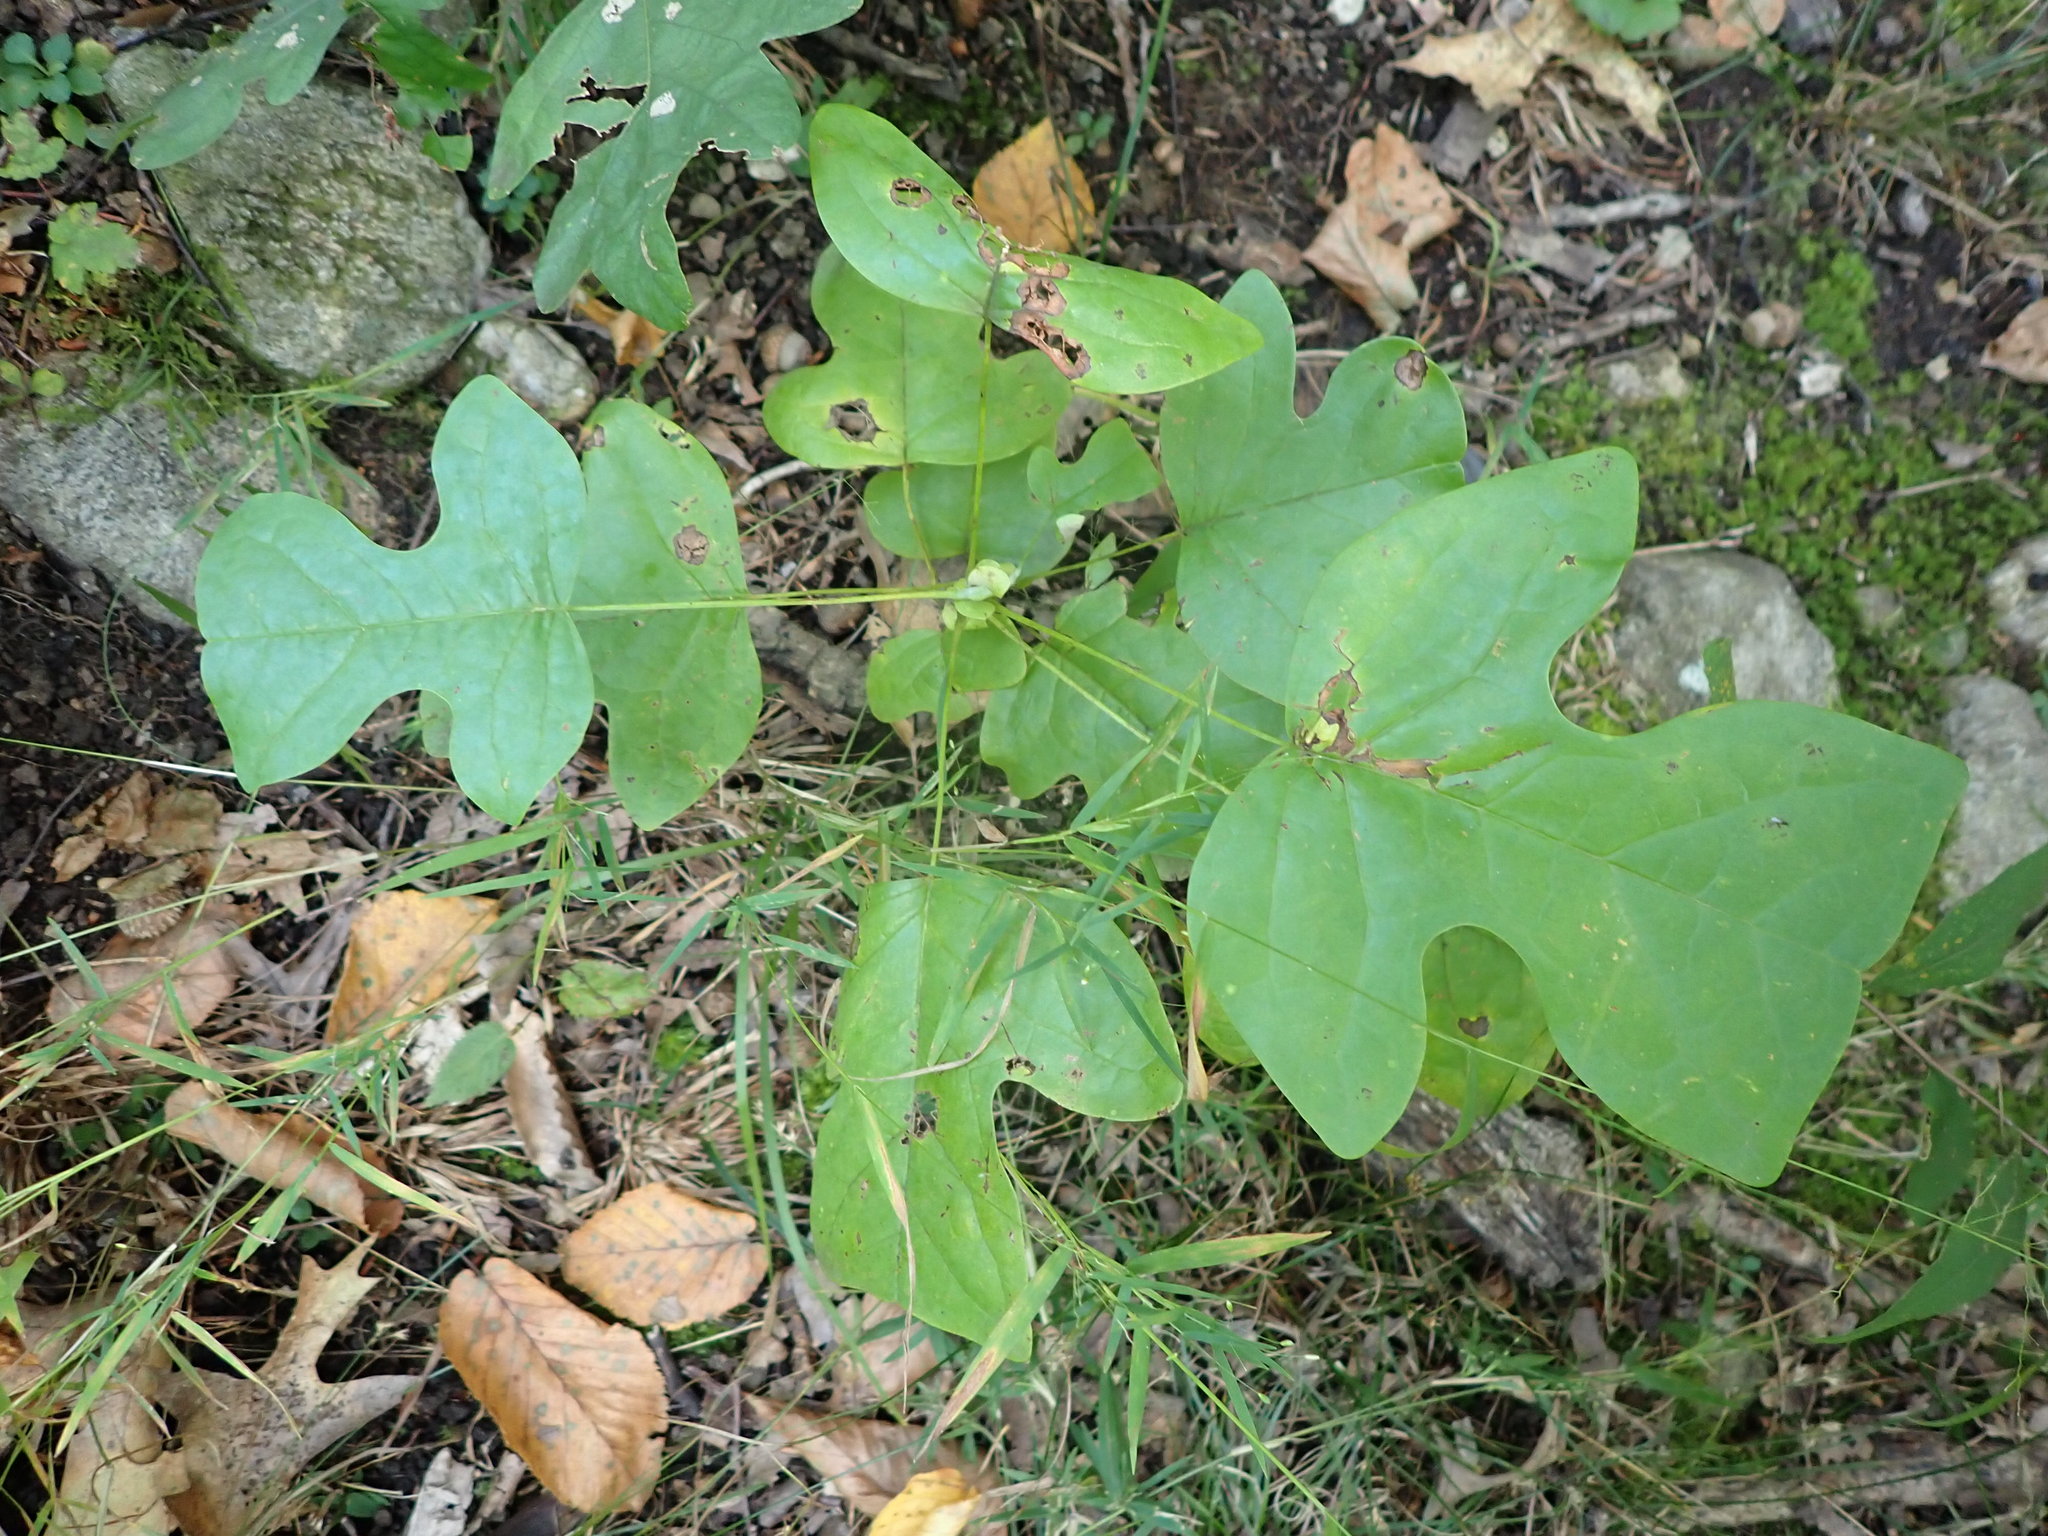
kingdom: Plantae
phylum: Tracheophyta
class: Magnoliopsida
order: Magnoliales
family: Magnoliaceae
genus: Liriodendron
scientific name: Liriodendron tulipifera
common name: Tulip tree
